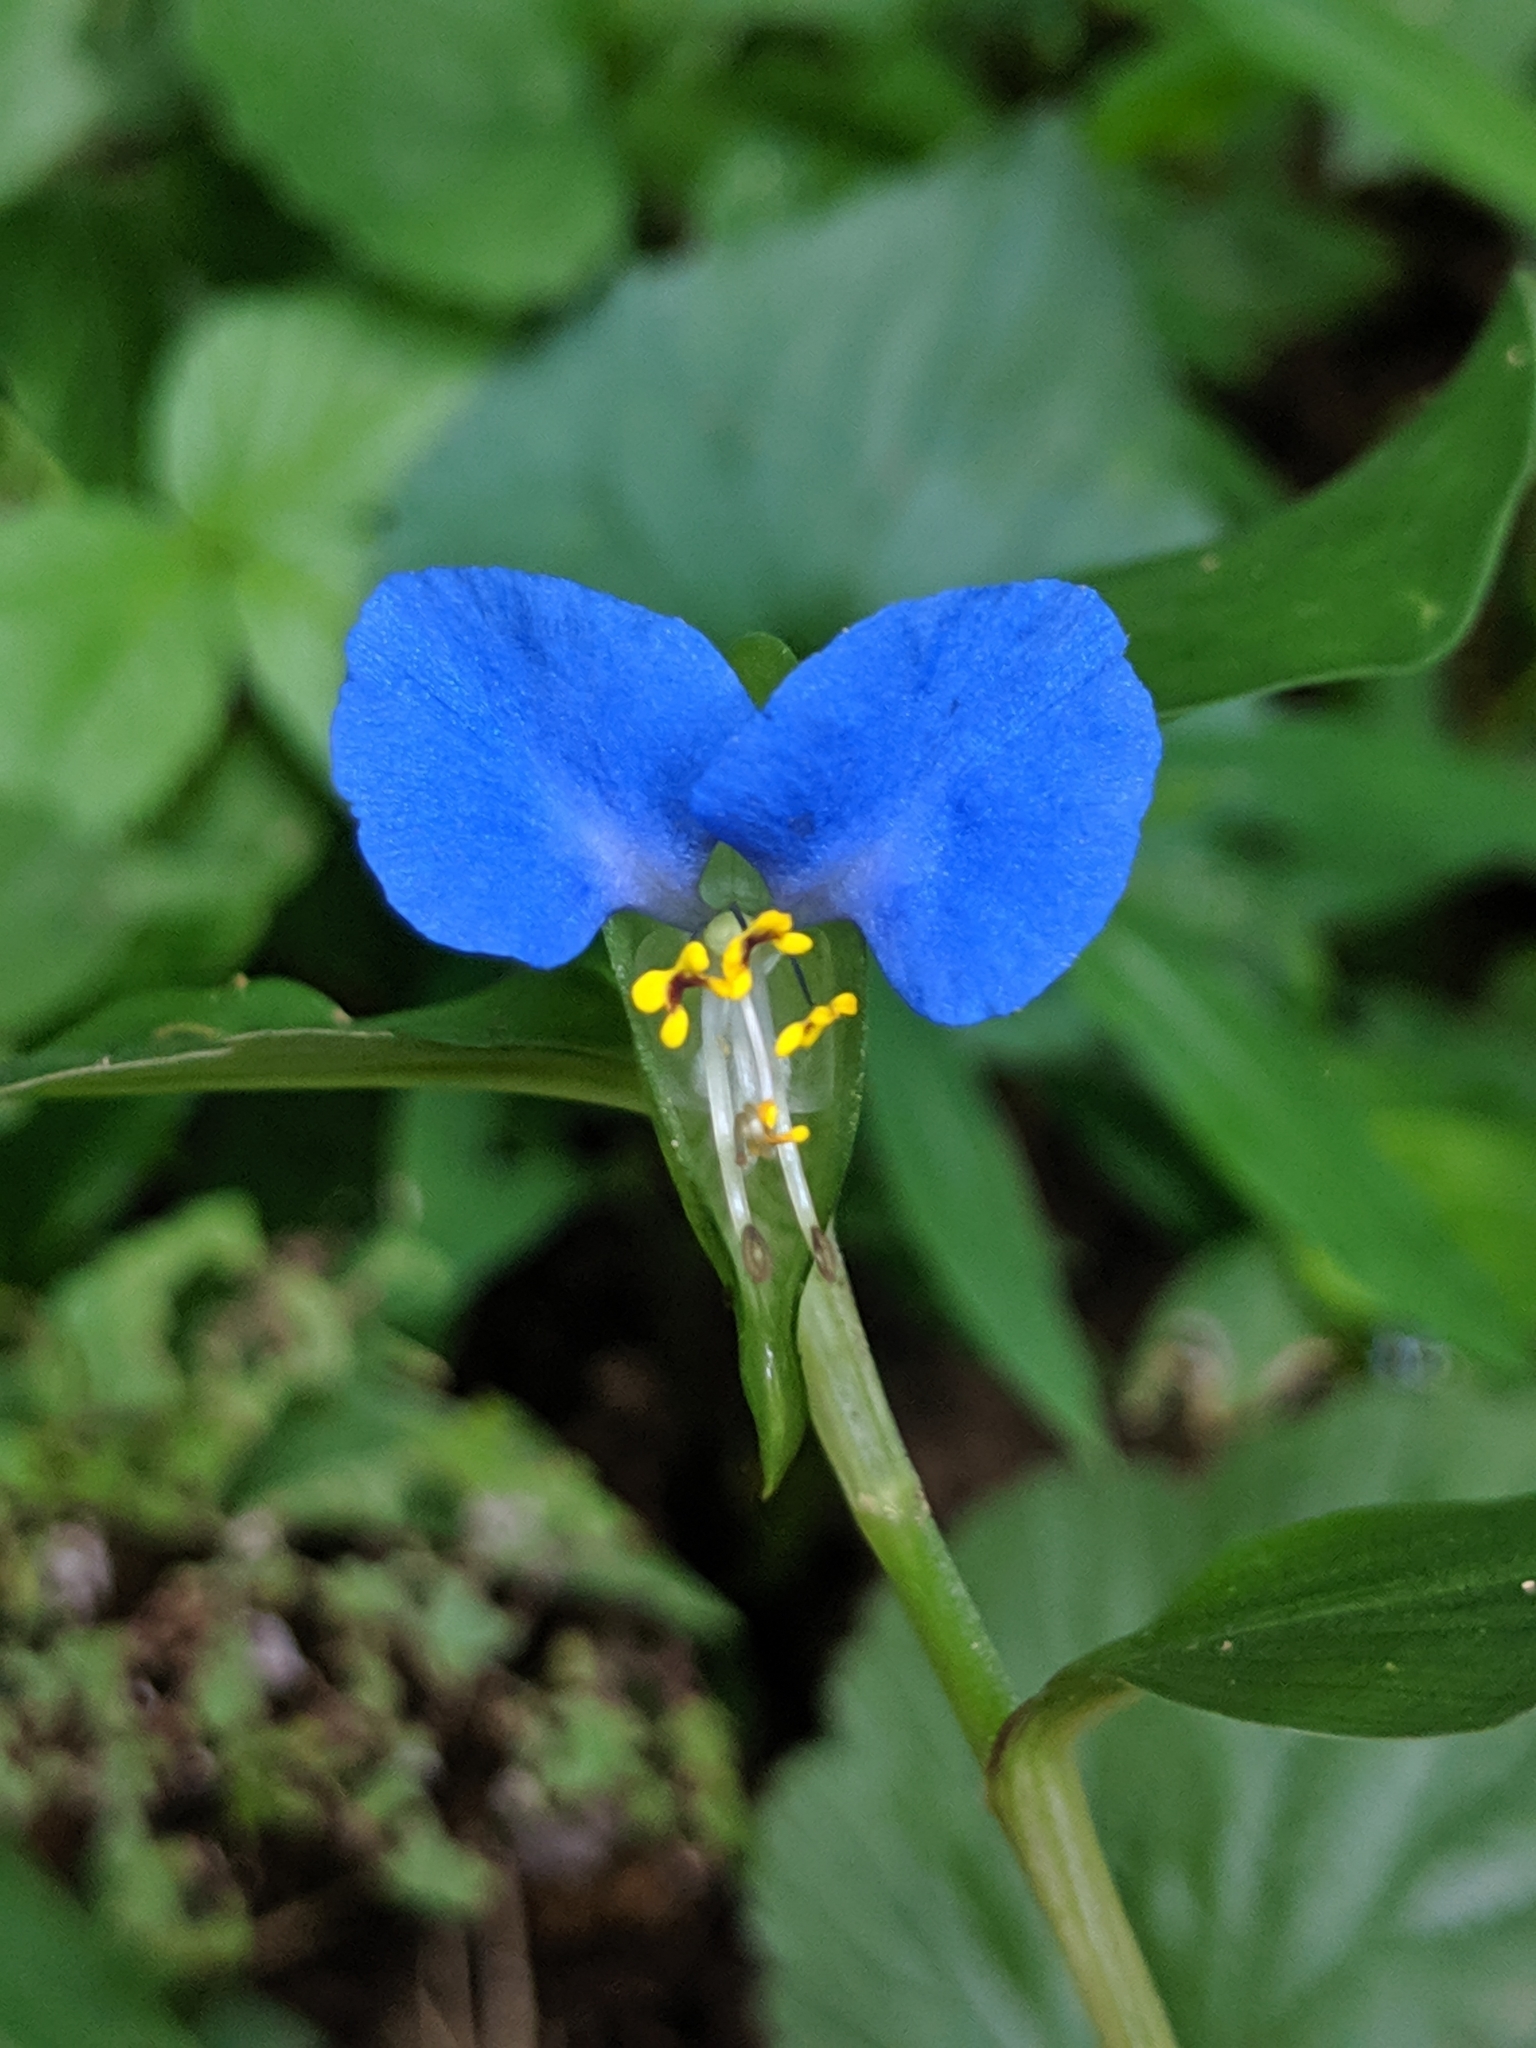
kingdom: Plantae
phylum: Tracheophyta
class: Liliopsida
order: Commelinales
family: Commelinaceae
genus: Commelina
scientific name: Commelina communis
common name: Asiatic dayflower
